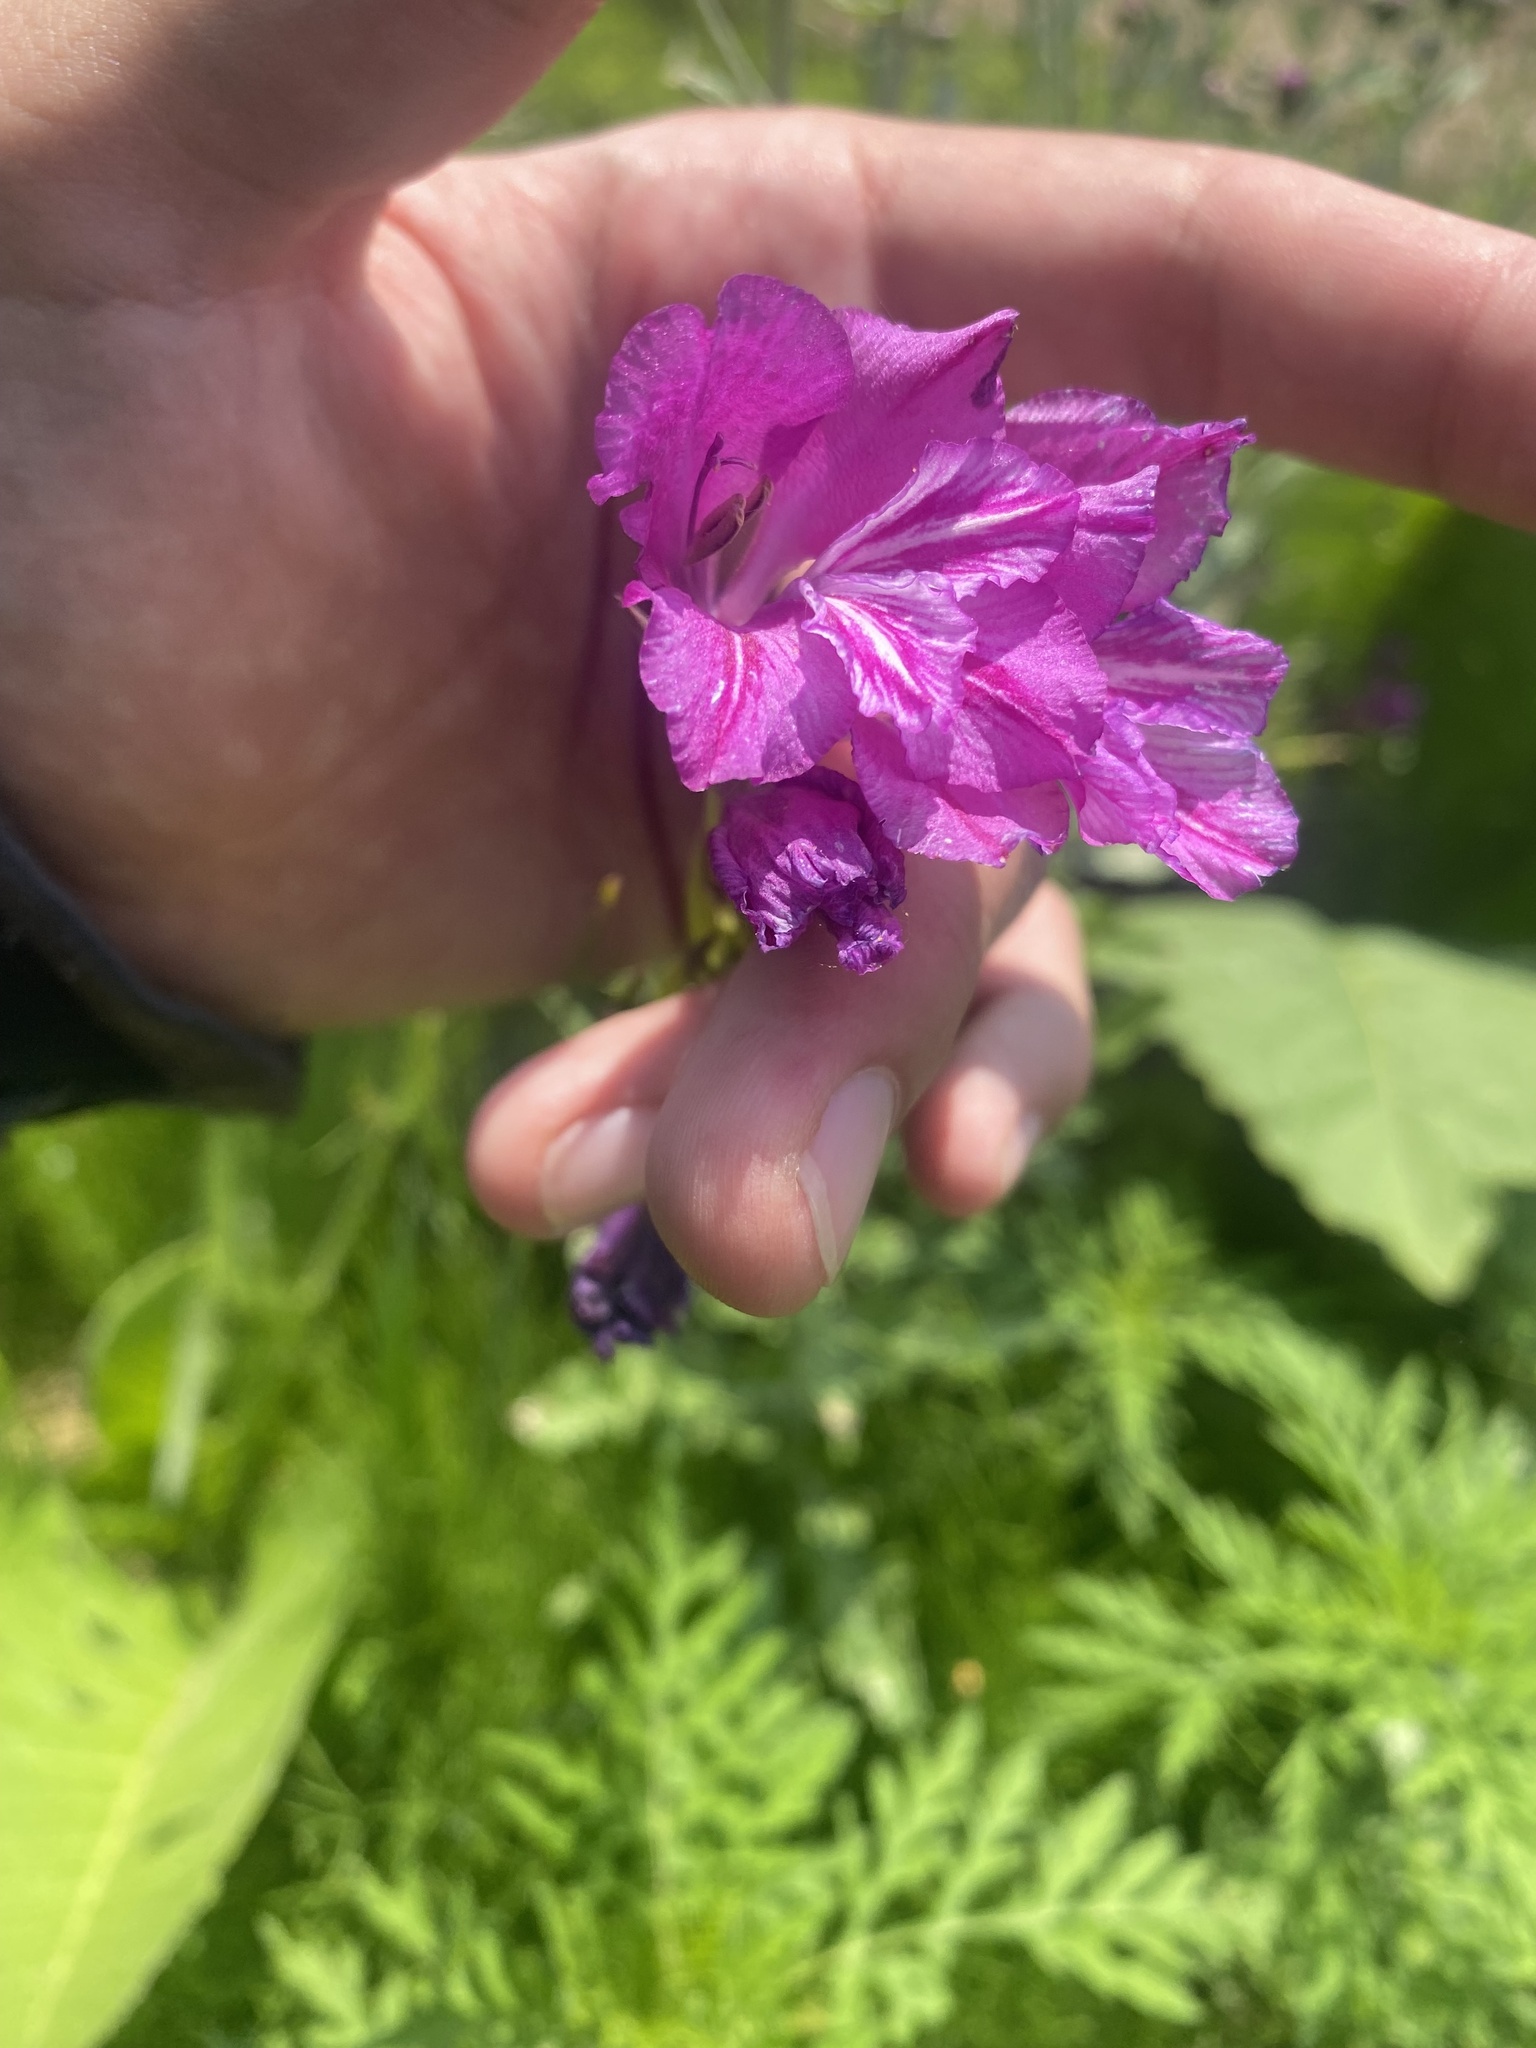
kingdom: Plantae
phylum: Tracheophyta
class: Liliopsida
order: Asparagales
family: Iridaceae
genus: Gladiolus
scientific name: Gladiolus tenuis
